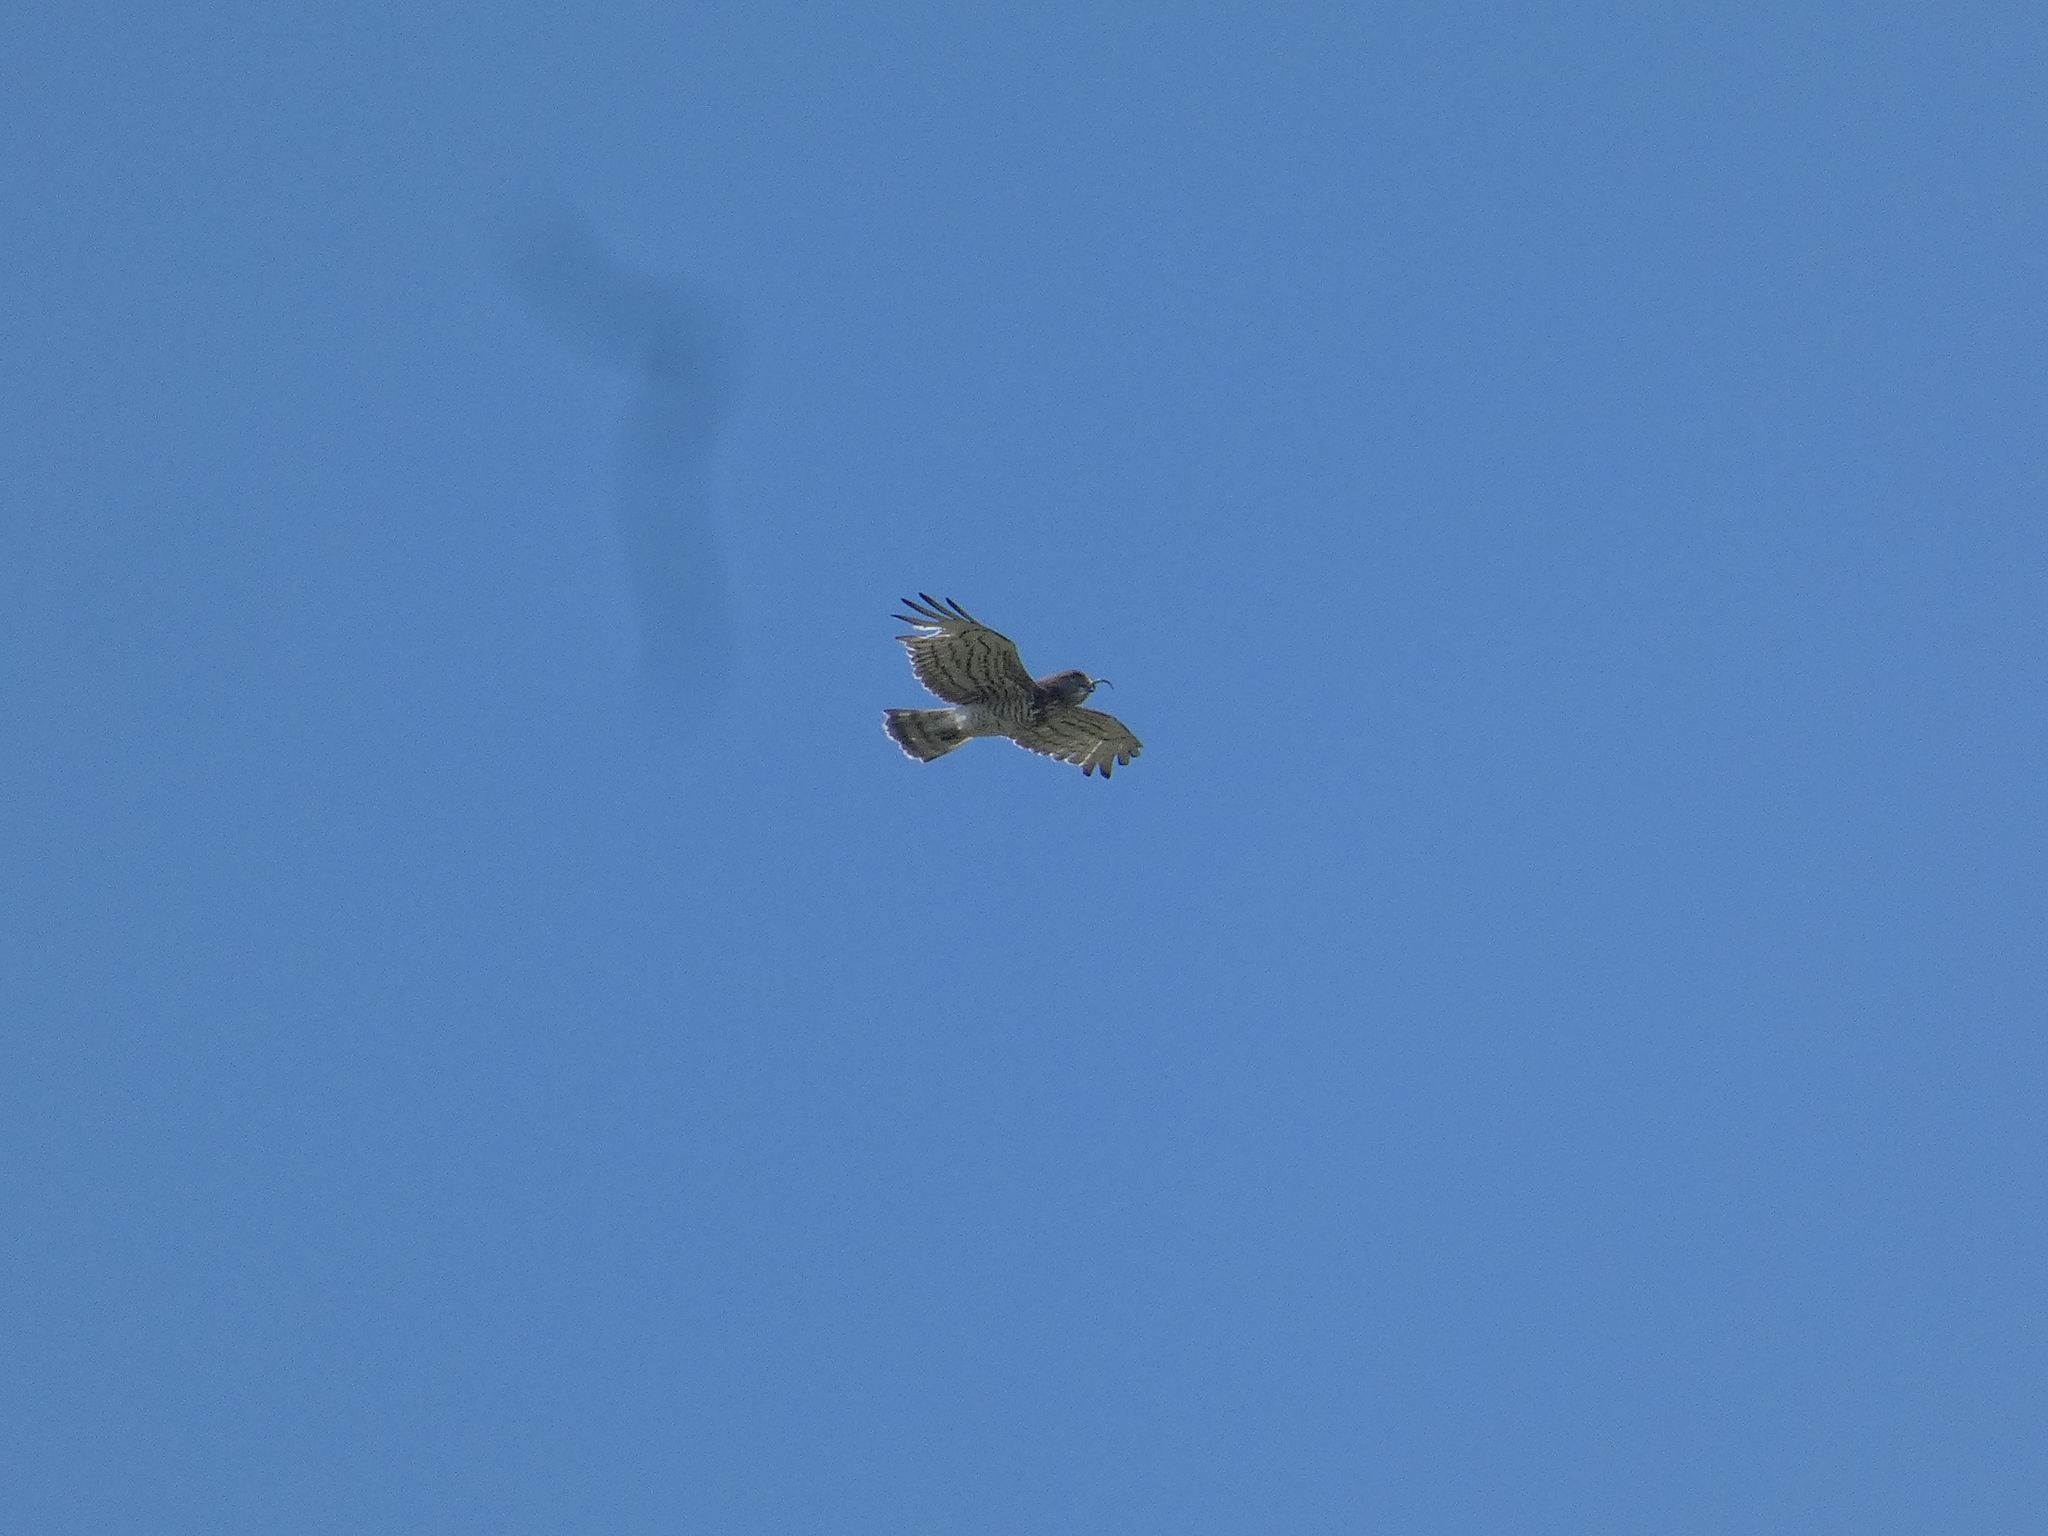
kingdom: Animalia
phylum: Chordata
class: Aves
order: Accipitriformes
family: Accipitridae
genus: Circaetus
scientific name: Circaetus gallicus
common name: Short-toed snake eagle
